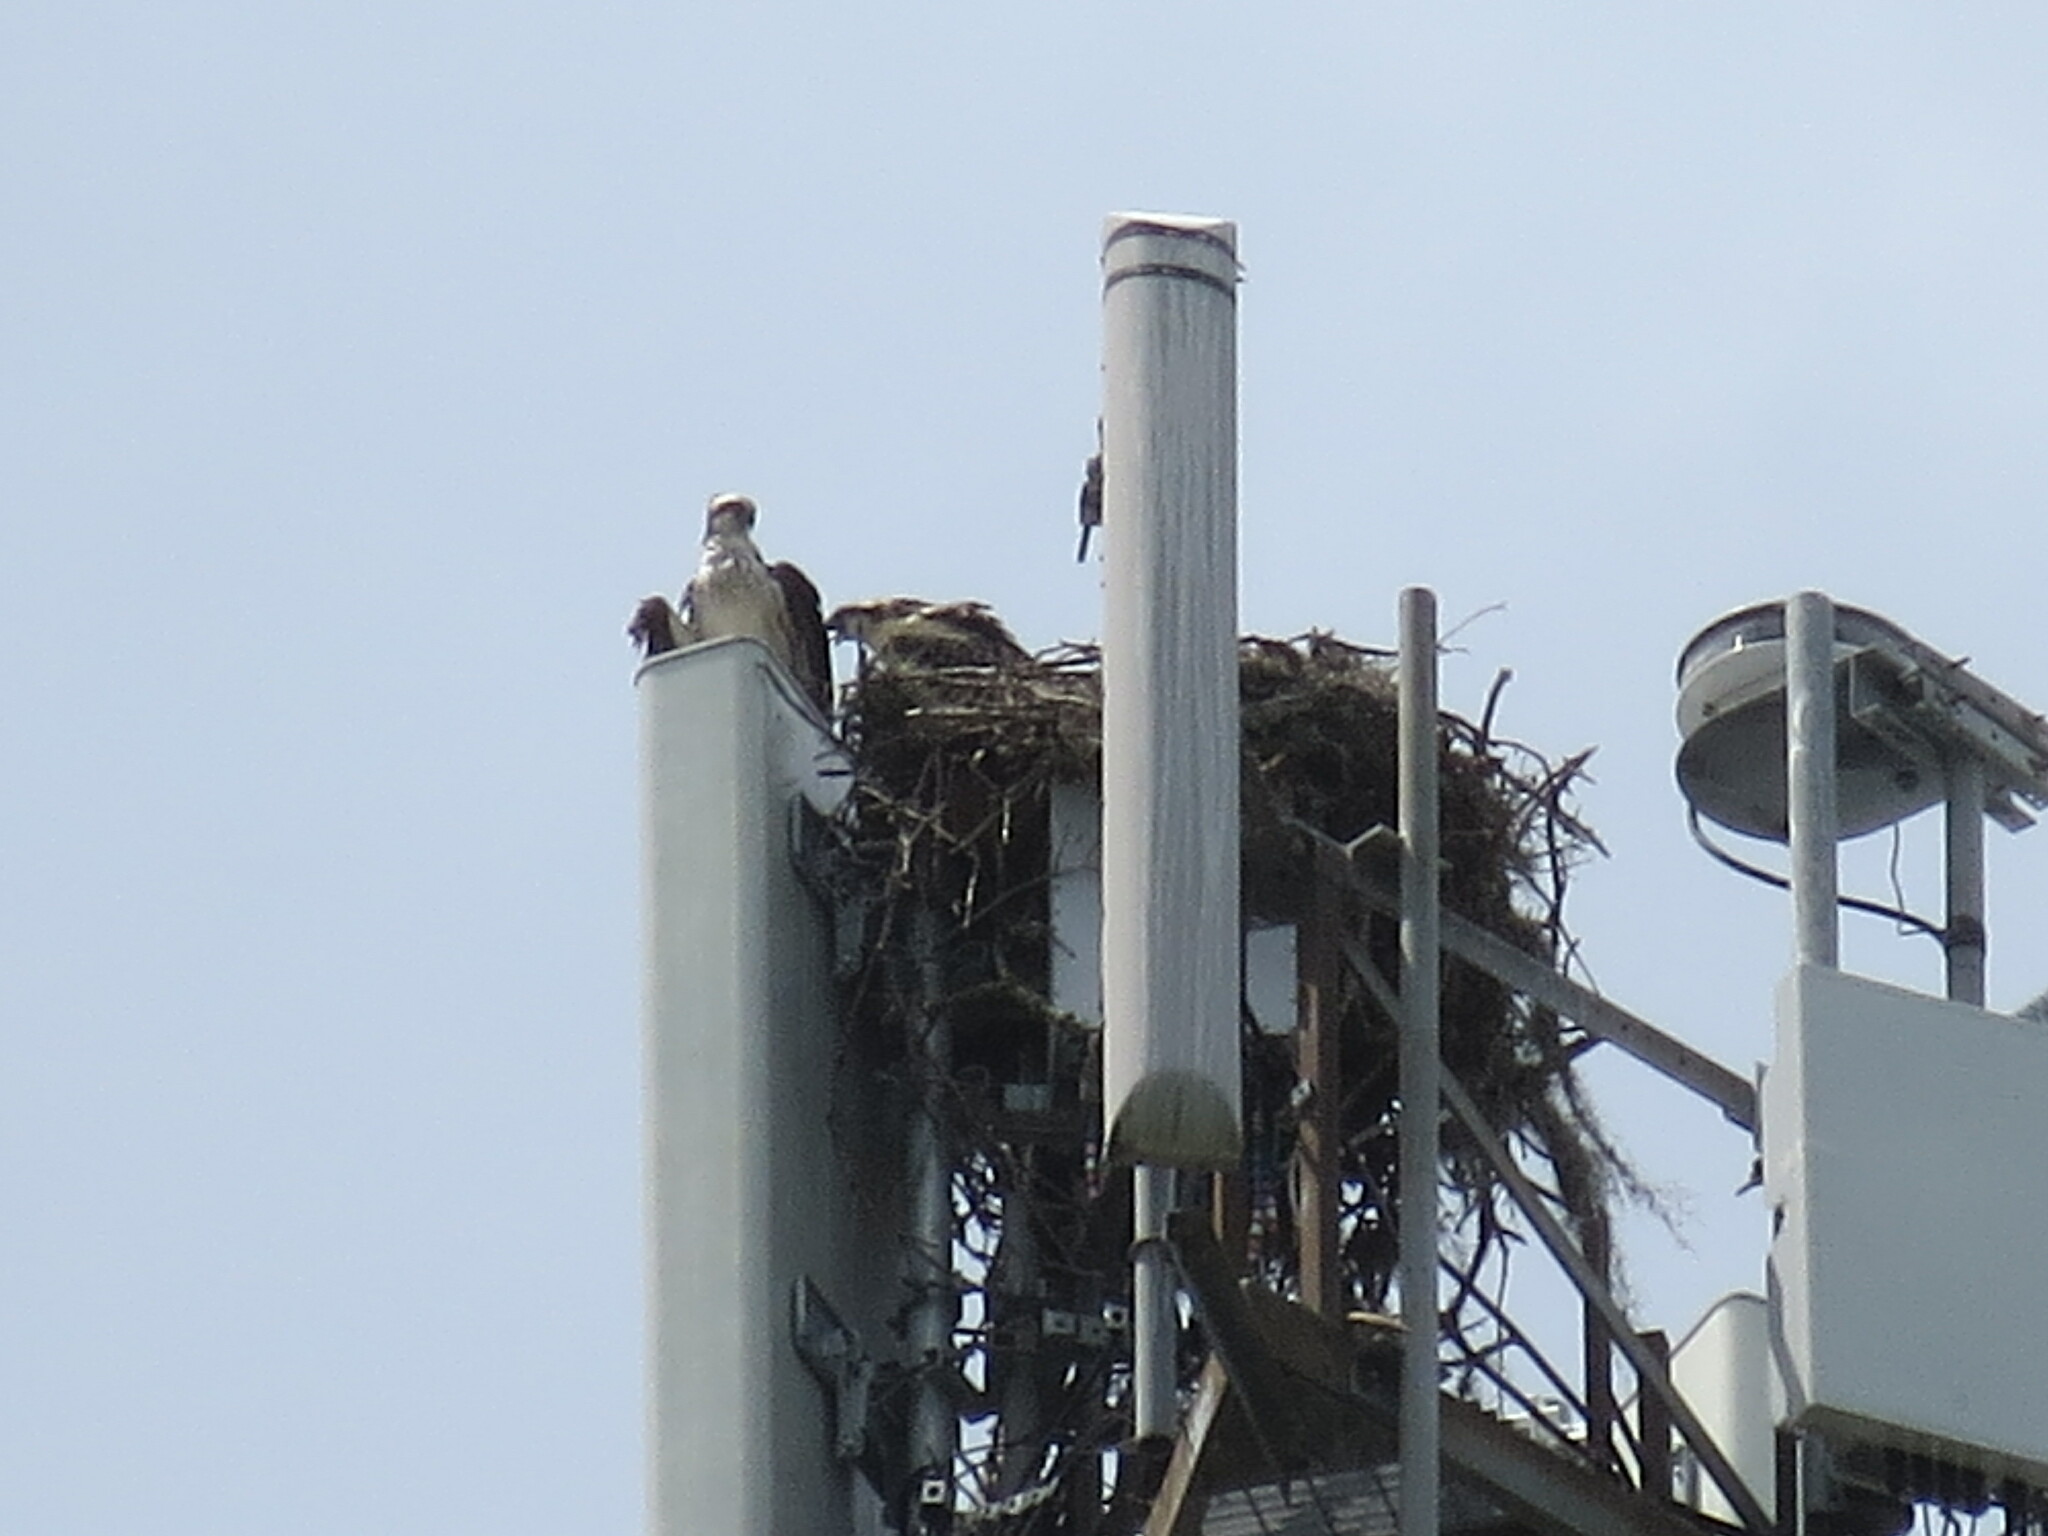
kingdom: Animalia
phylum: Chordata
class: Aves
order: Accipitriformes
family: Pandionidae
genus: Pandion
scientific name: Pandion haliaetus
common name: Osprey
